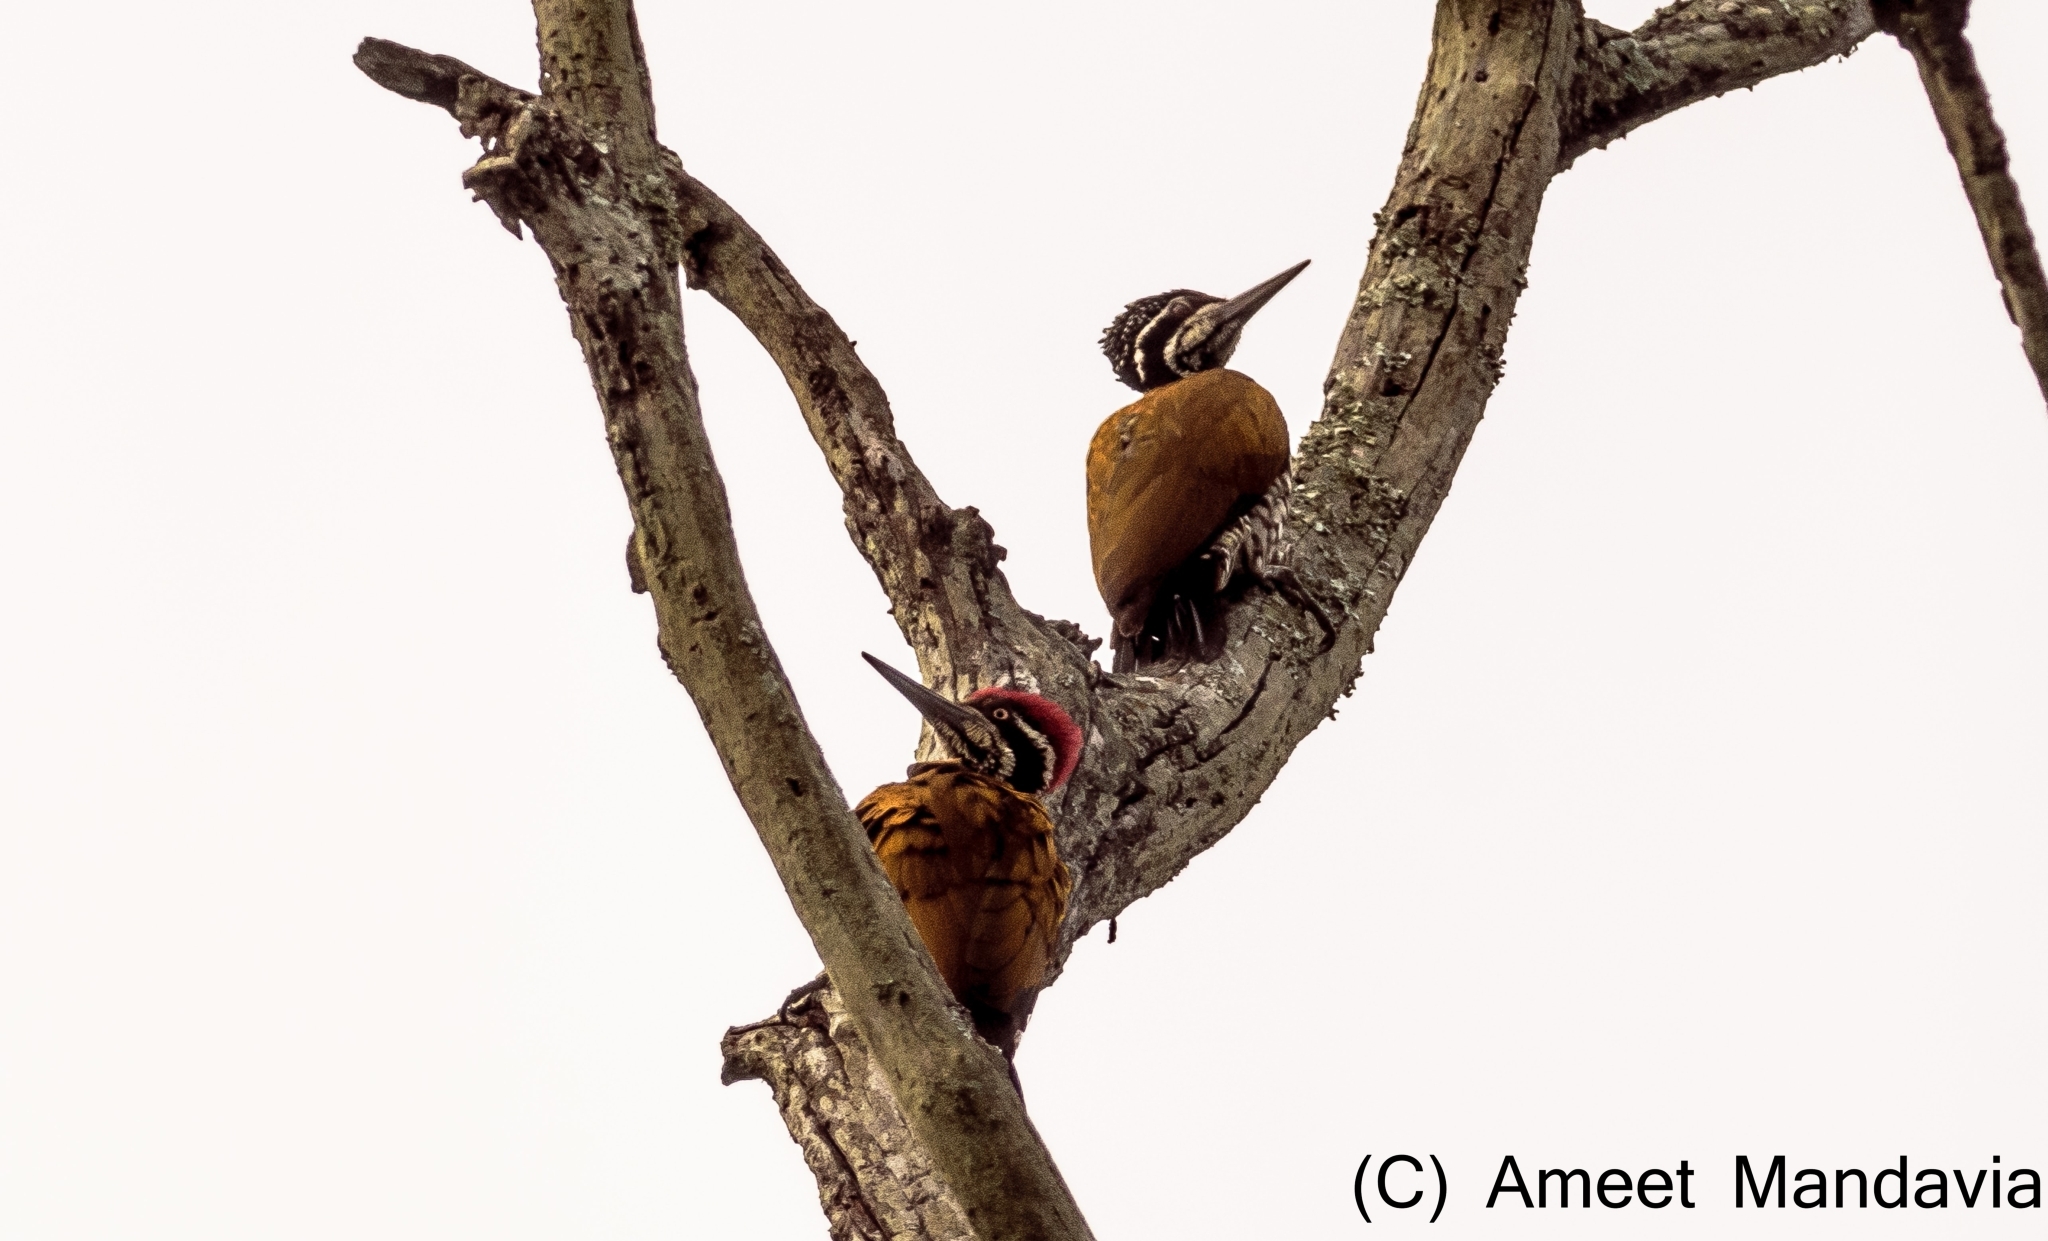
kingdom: Animalia
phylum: Chordata
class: Aves
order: Piciformes
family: Picidae
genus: Chrysocolaptes
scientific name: Chrysocolaptes guttacristatus
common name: Greater flameback
